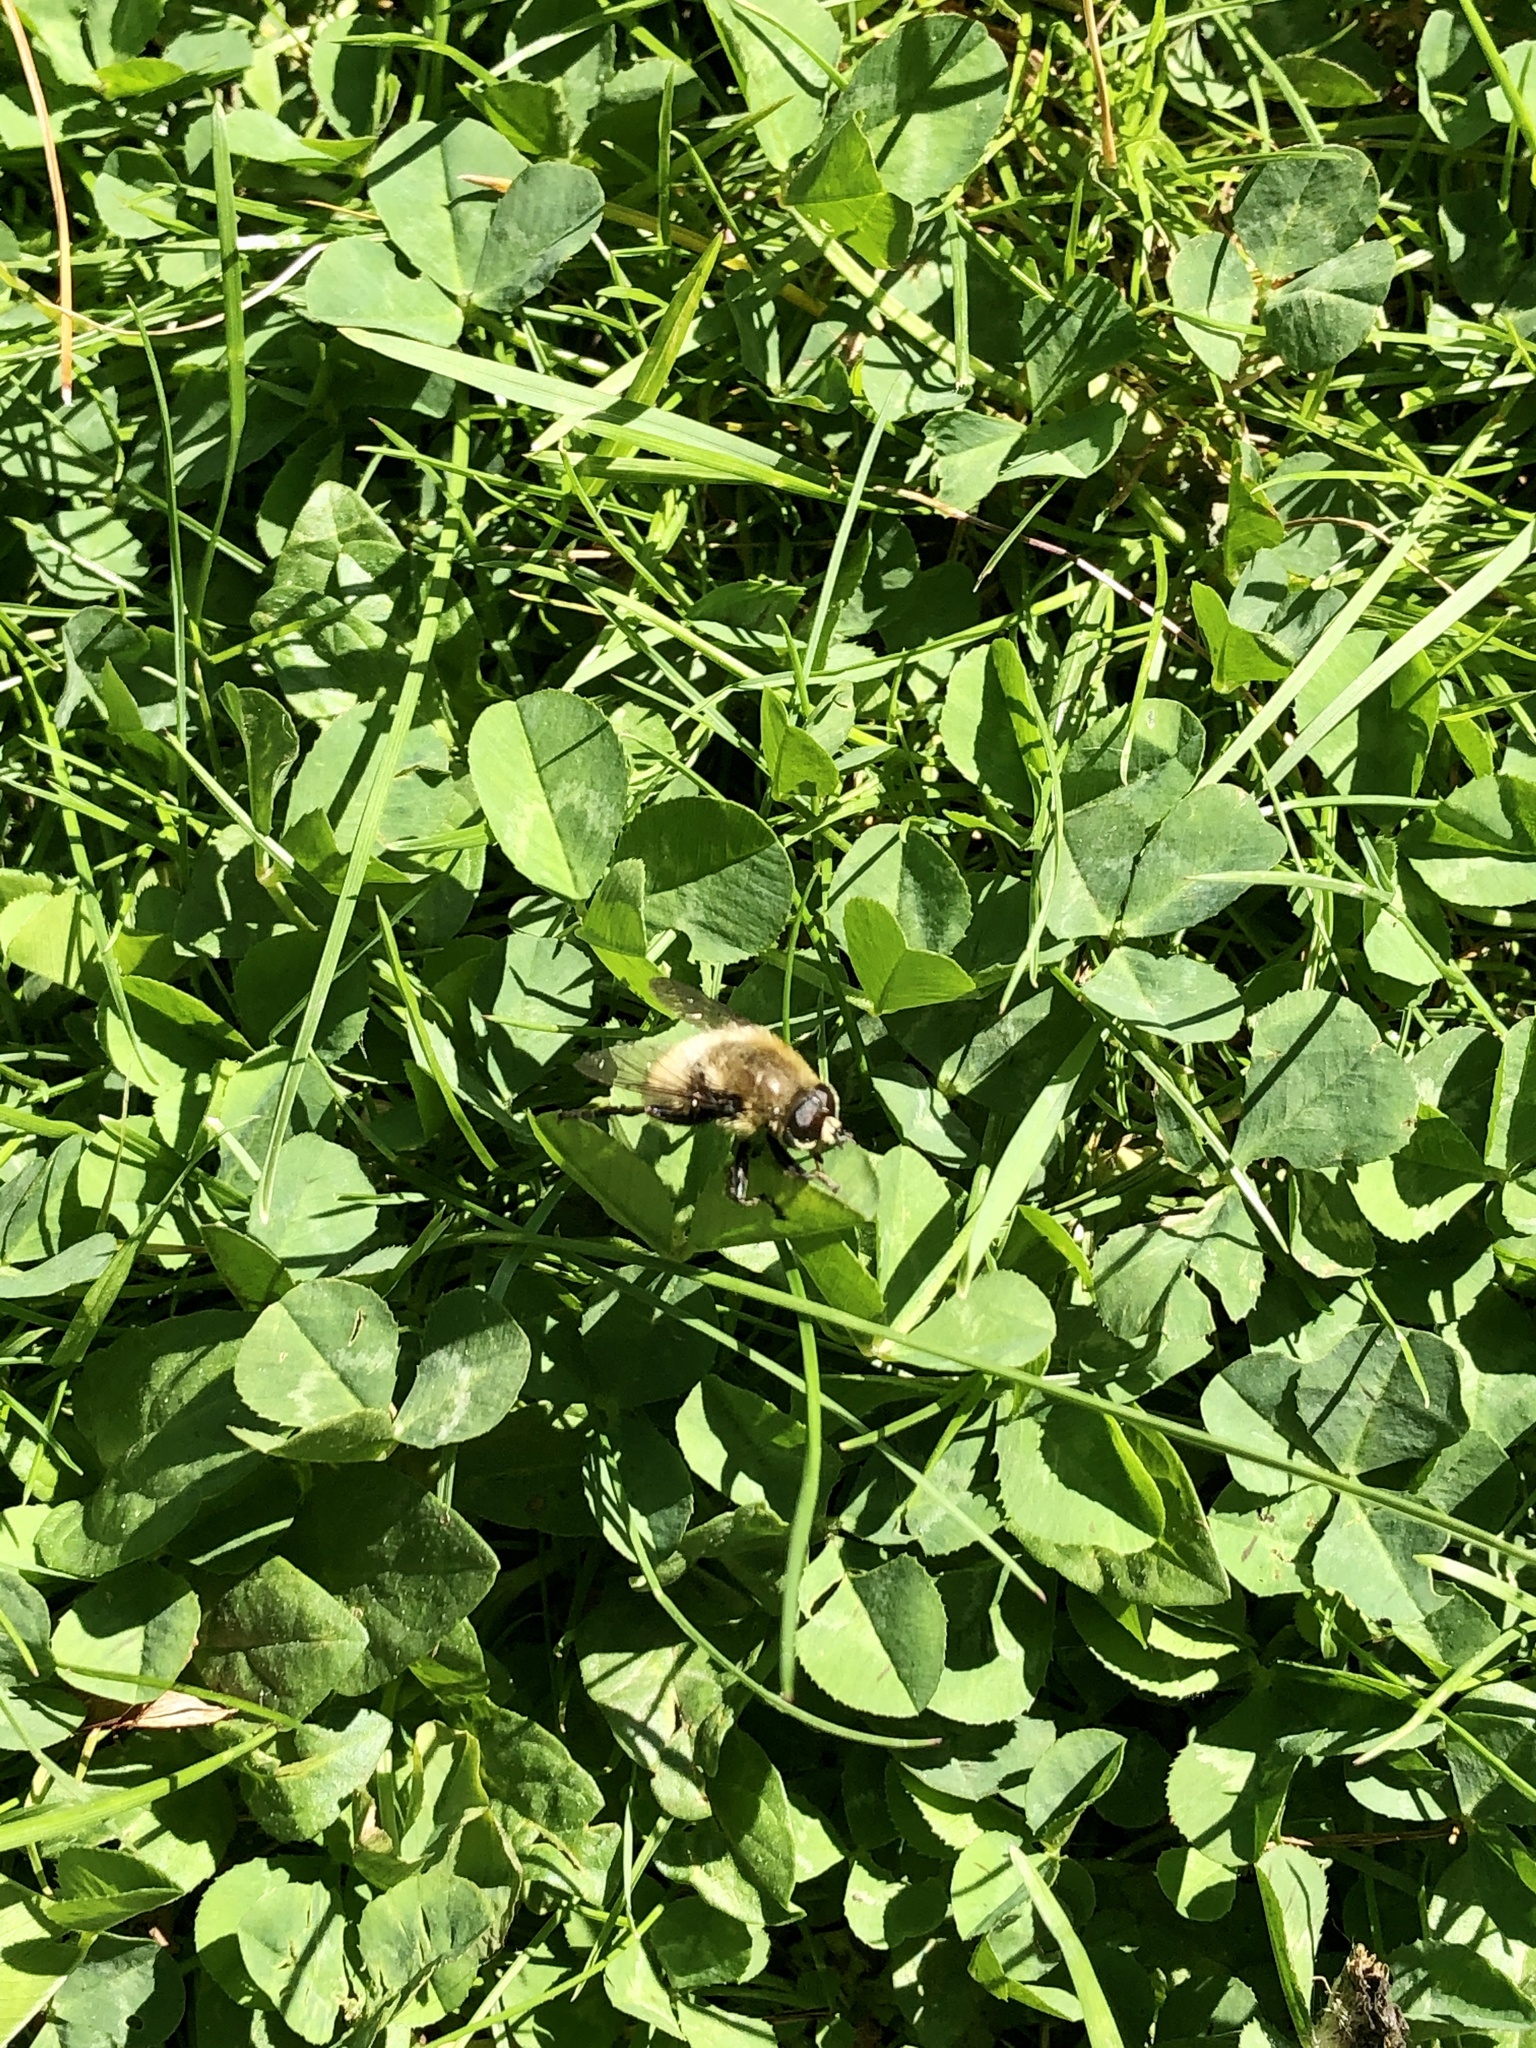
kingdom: Animalia
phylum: Arthropoda
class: Insecta
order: Diptera
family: Syrphidae
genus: Merodon
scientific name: Merodon equestris
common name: Greater bulb-fly
